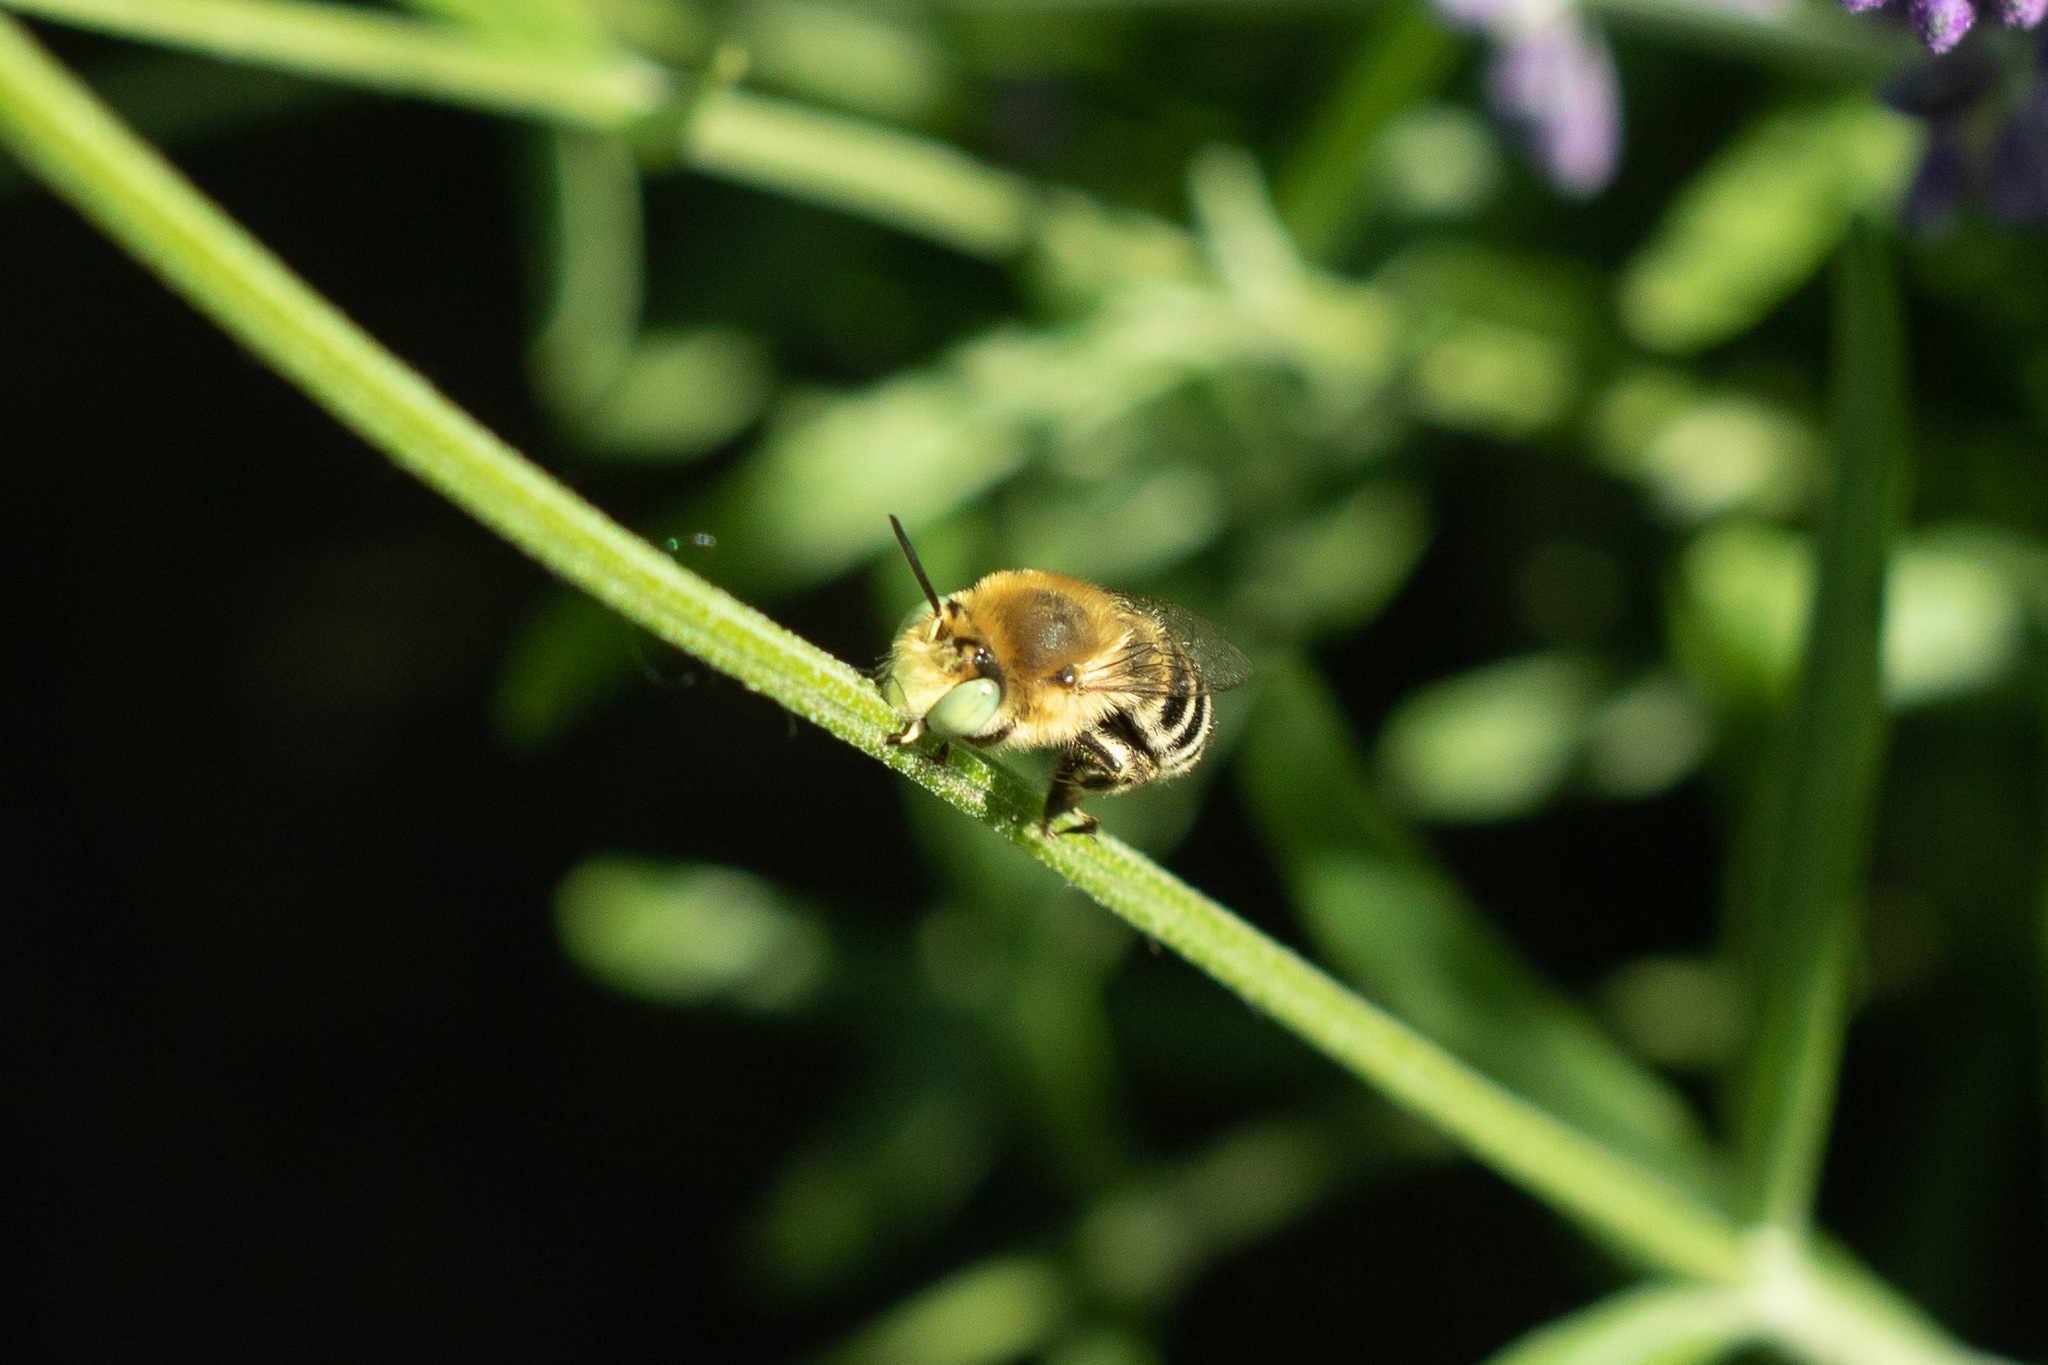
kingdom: Animalia
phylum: Arthropoda
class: Insecta
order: Hymenoptera
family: Apidae
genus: Anthophora
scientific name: Anthophora bimaculata
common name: Green-eyed flower bee
